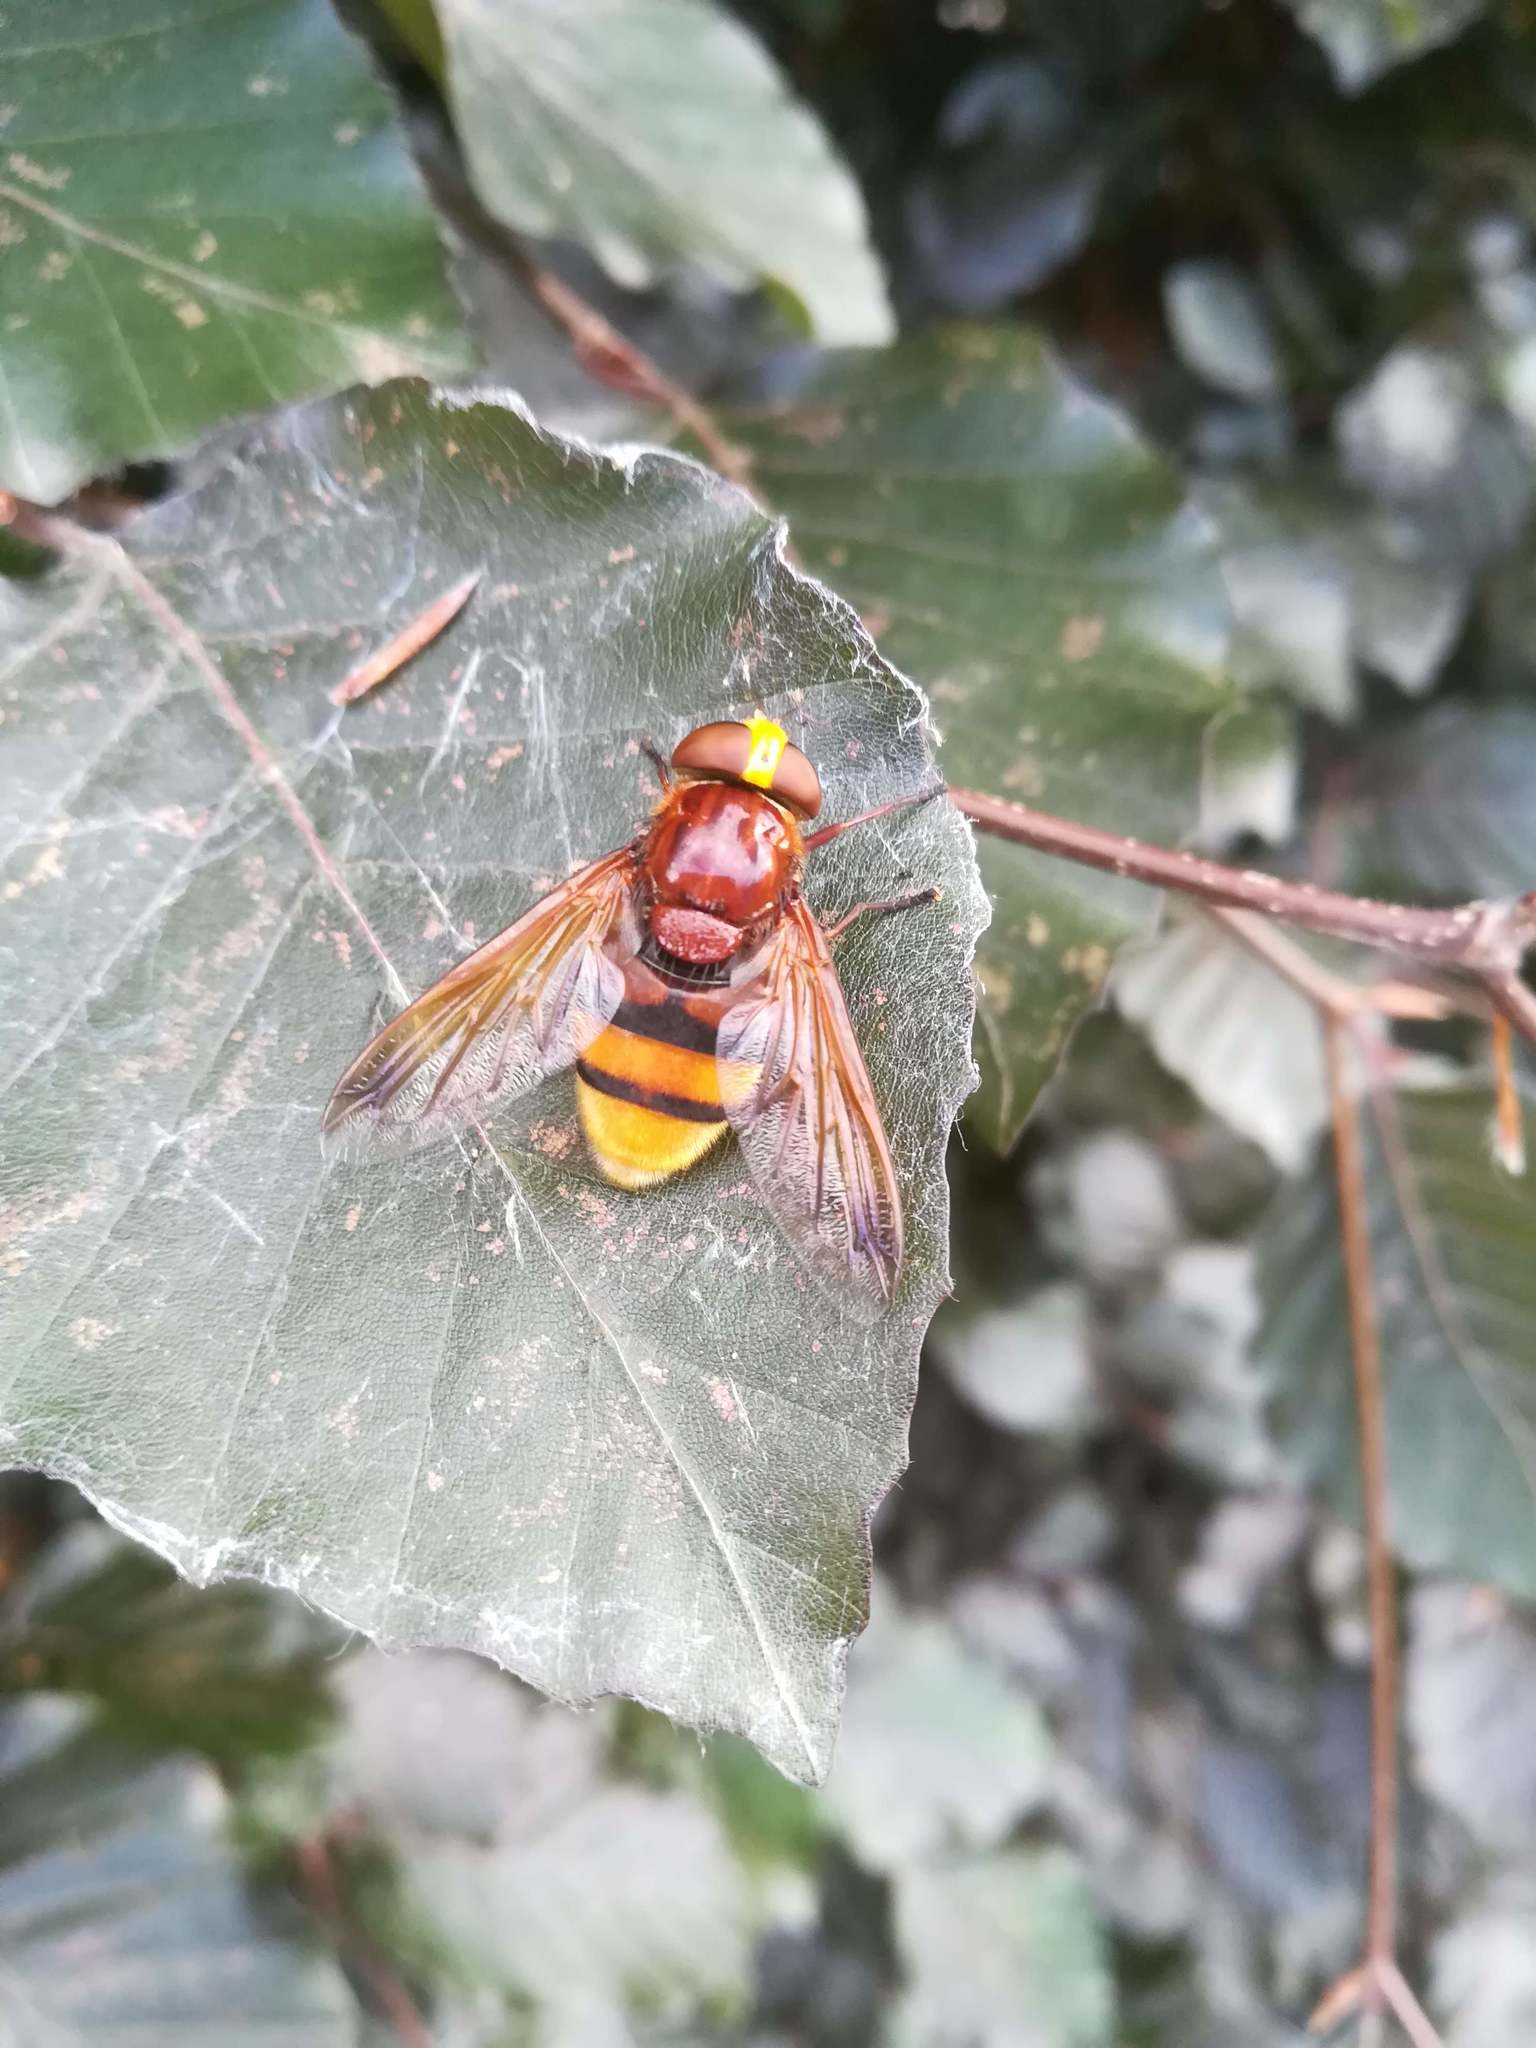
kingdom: Animalia
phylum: Arthropoda
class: Insecta
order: Diptera
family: Syrphidae
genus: Volucella
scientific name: Volucella zonaria
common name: Hornet hoverfly
